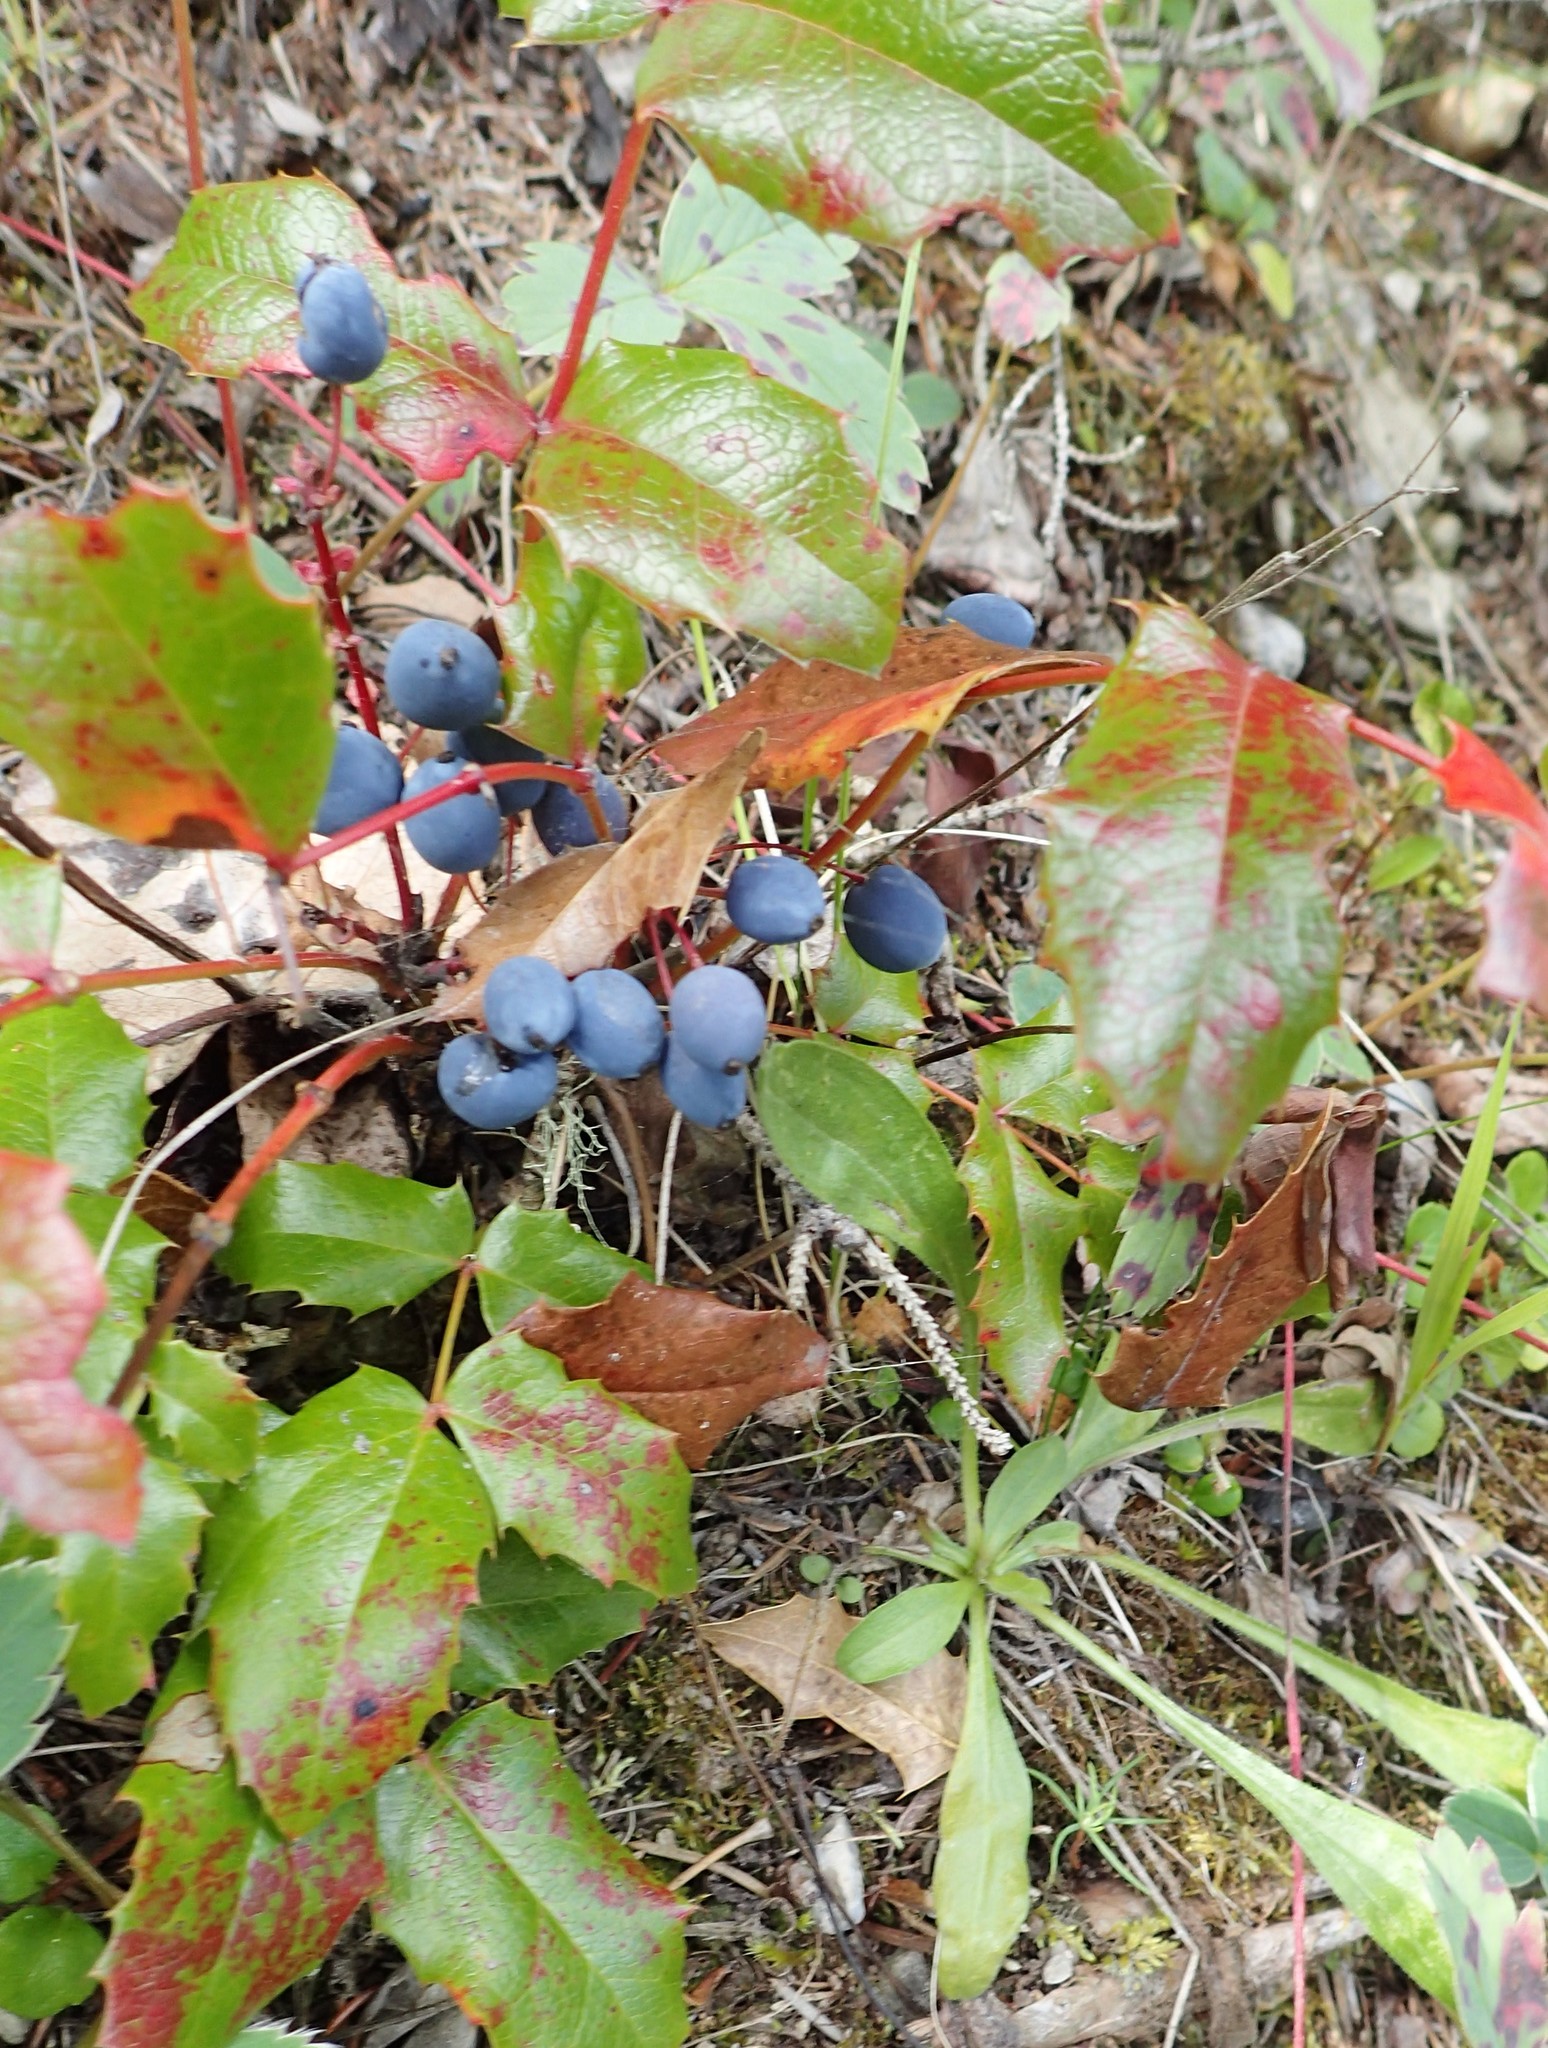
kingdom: Plantae
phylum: Tracheophyta
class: Magnoliopsida
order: Ranunculales
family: Berberidaceae
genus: Mahonia
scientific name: Mahonia aquifolium
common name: Oregon-grape
